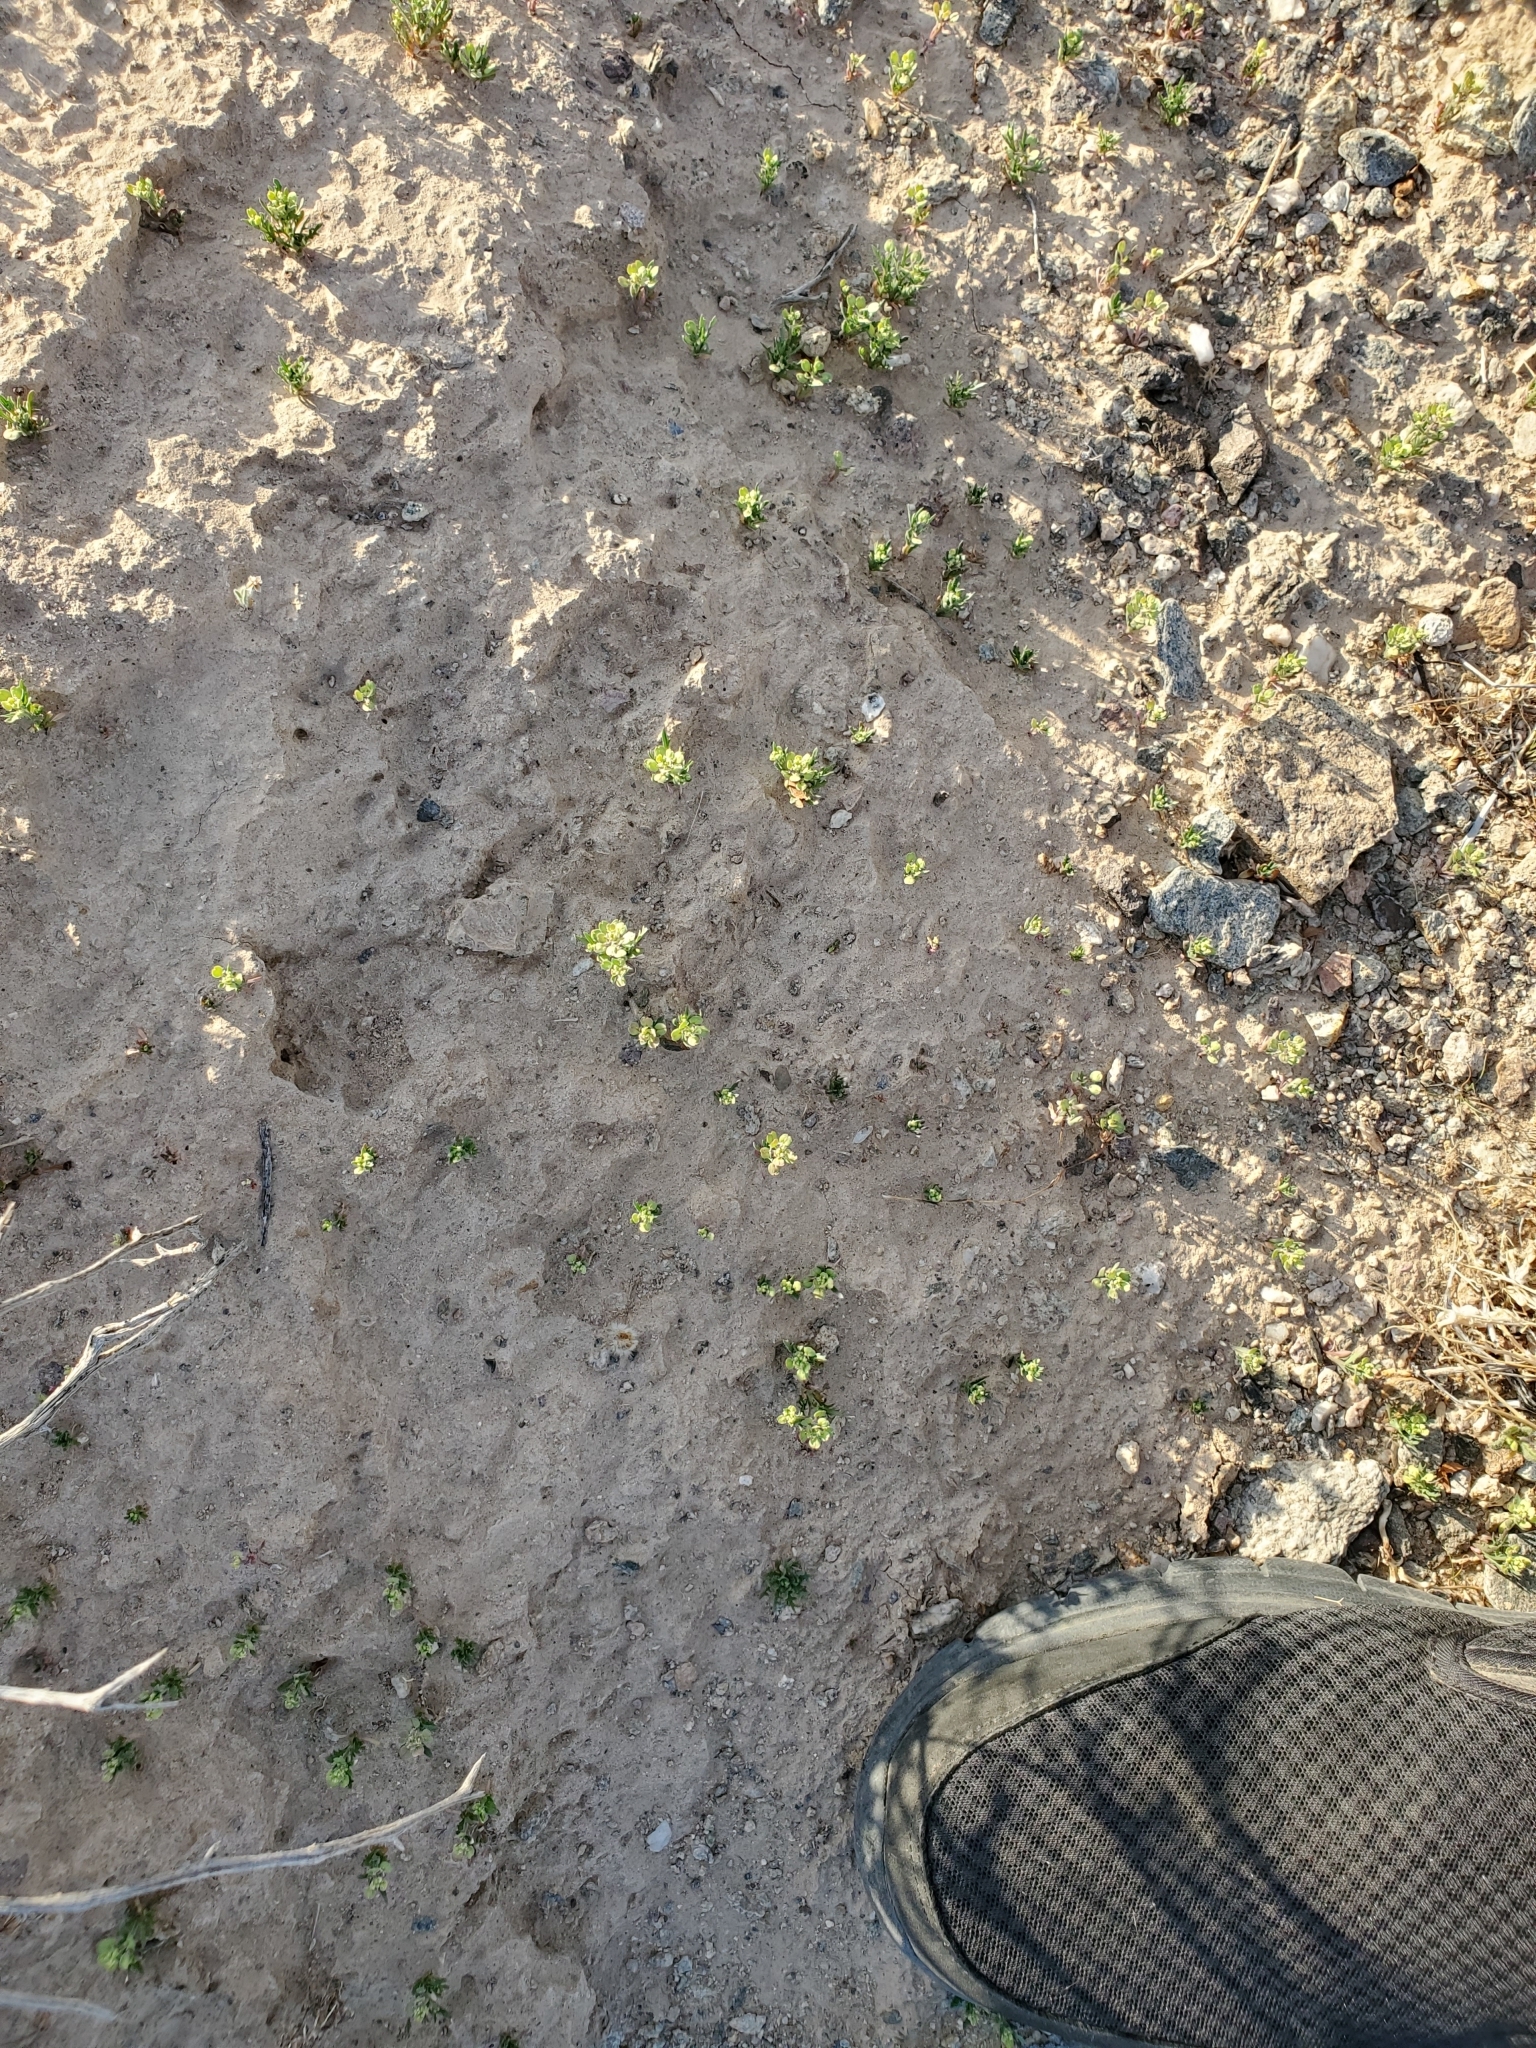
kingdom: Plantae
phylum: Tracheophyta
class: Magnoliopsida
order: Brassicales
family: Brassicaceae
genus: Lepidium
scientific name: Lepidium lasiocarpum
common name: Hairy-pod pepperwort
